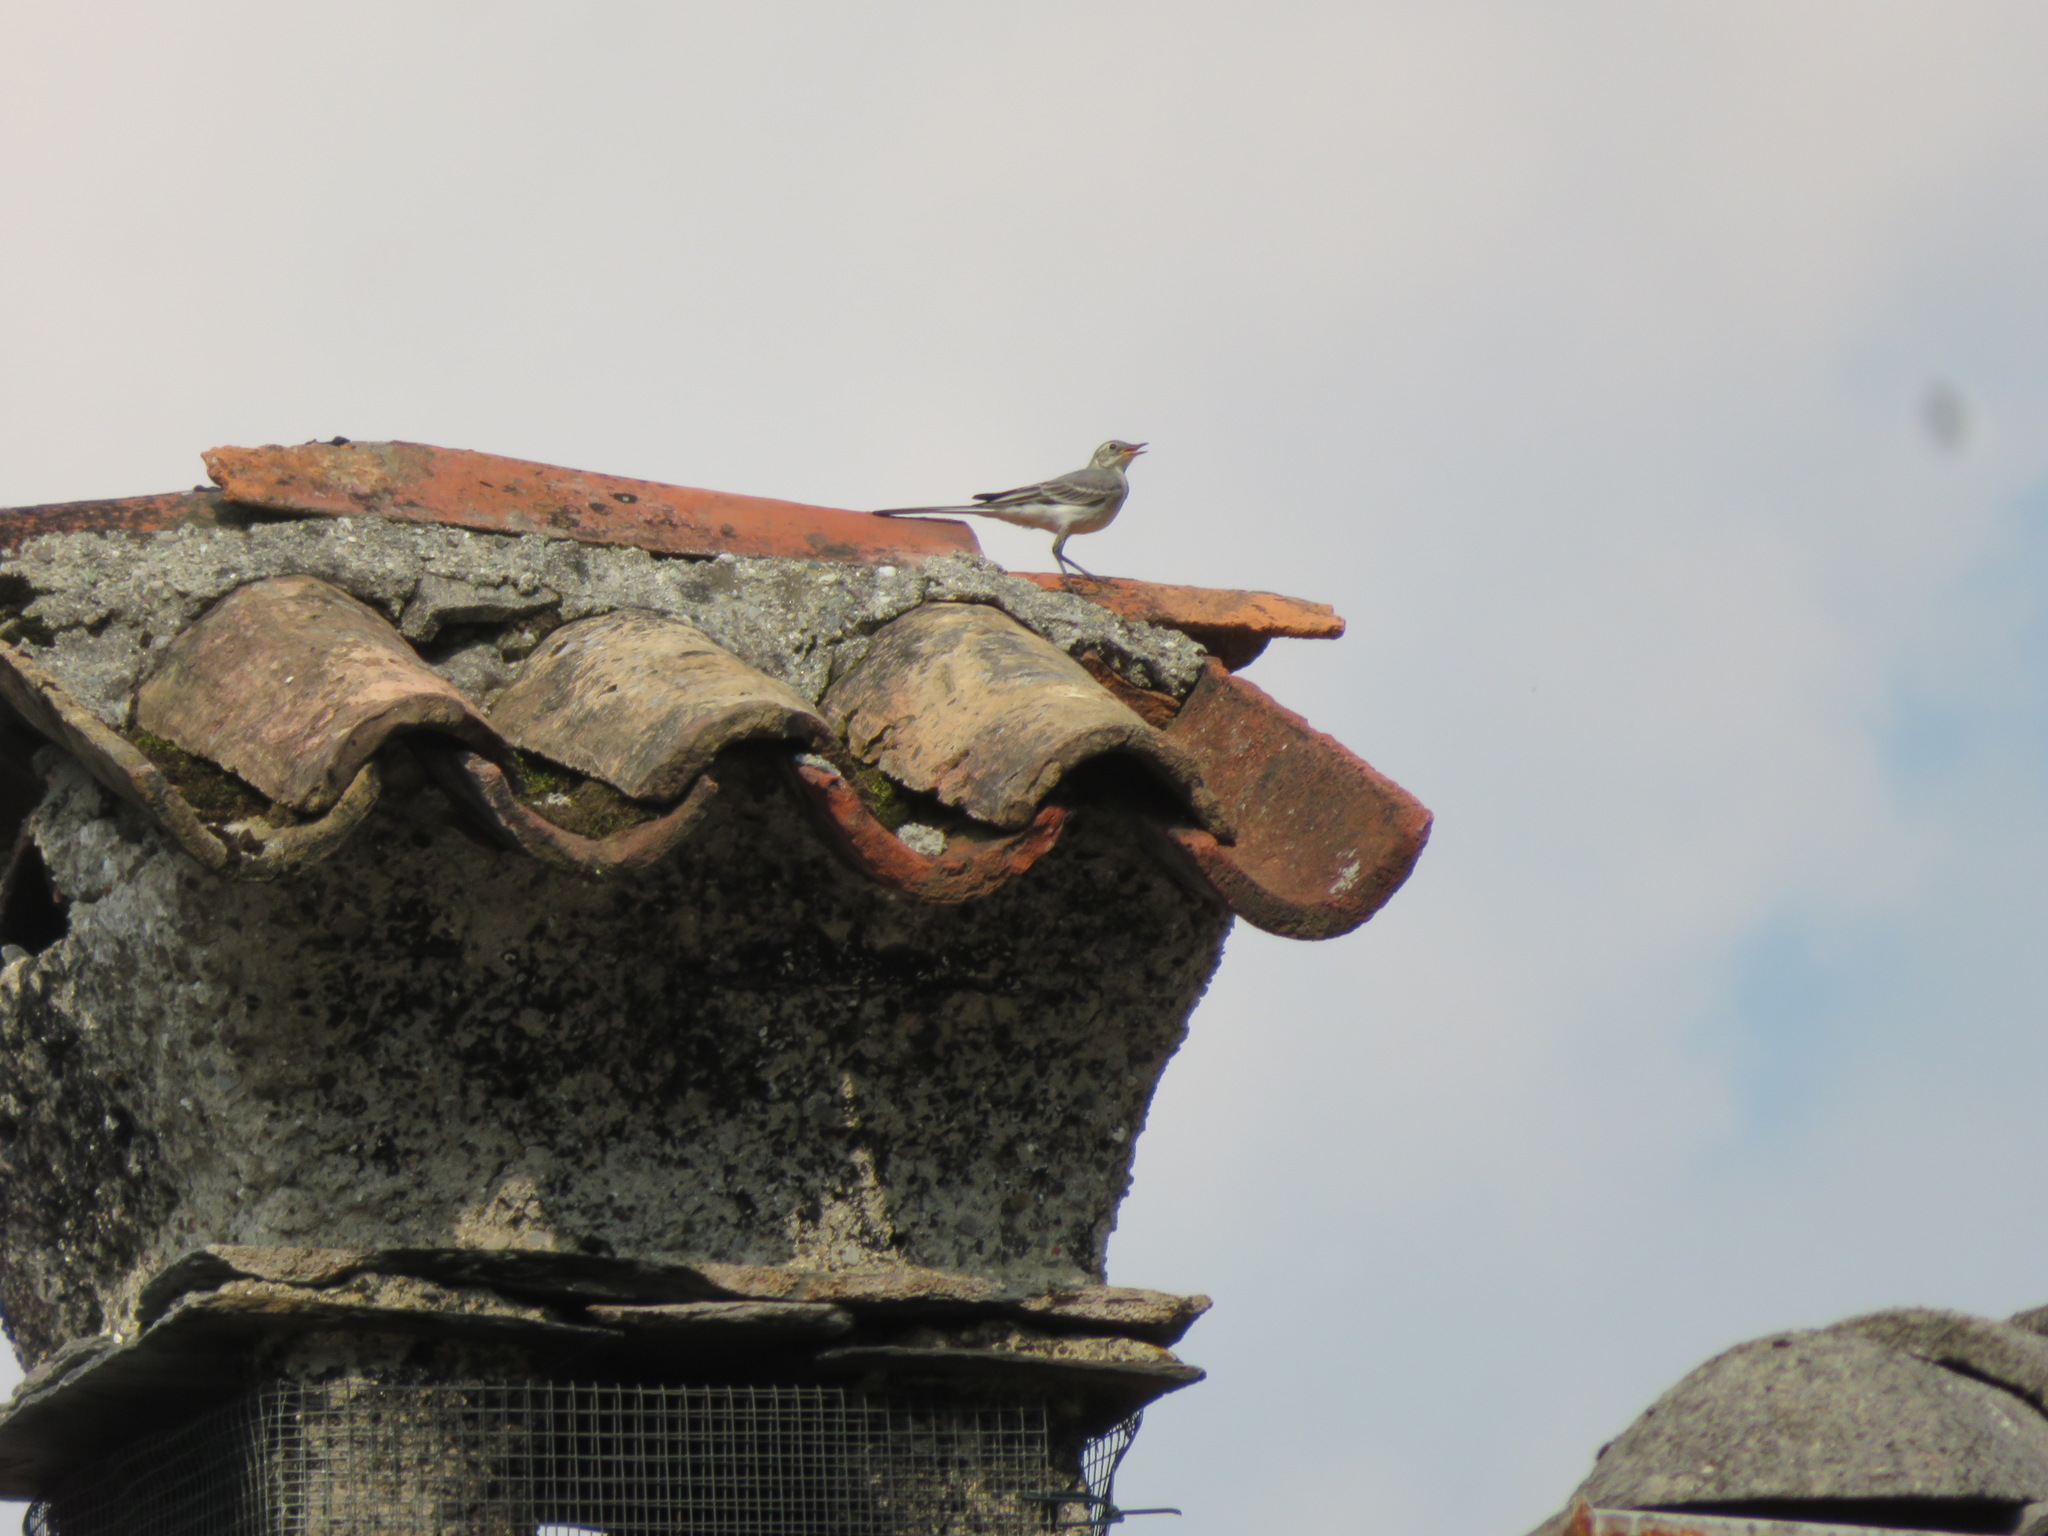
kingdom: Animalia
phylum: Chordata
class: Aves
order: Passeriformes
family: Motacillidae
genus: Motacilla
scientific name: Motacilla alba
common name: White wagtail
